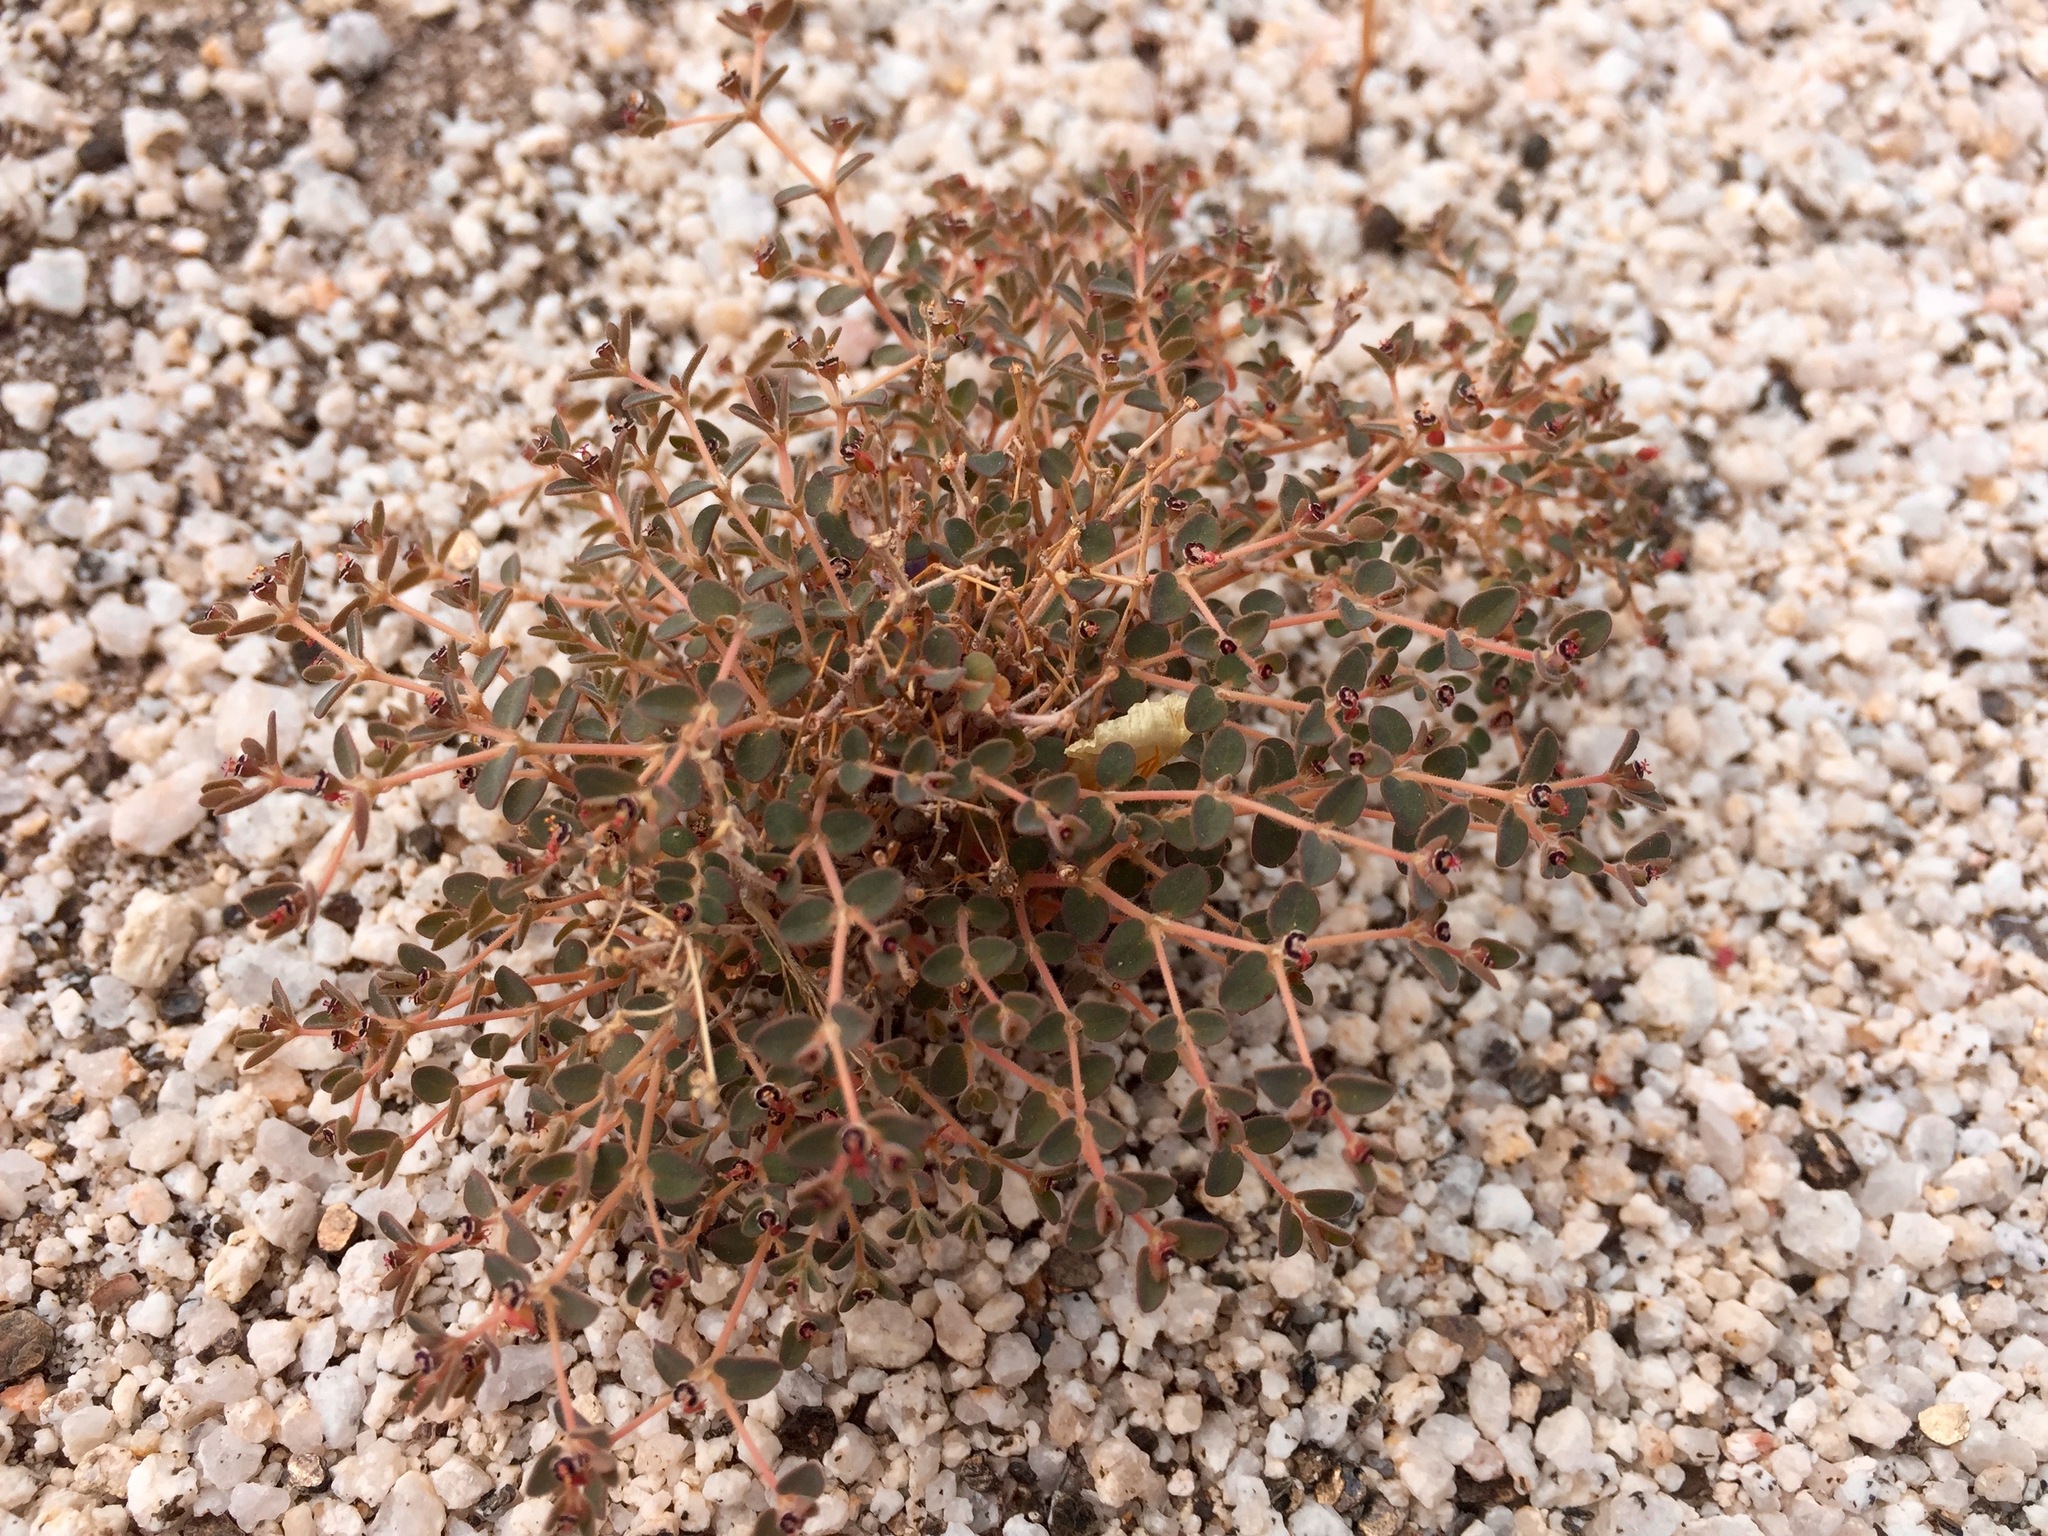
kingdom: Plantae
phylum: Tracheophyta
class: Magnoliopsida
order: Malpighiales
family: Euphorbiaceae
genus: Euphorbia
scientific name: Euphorbia polycarpa
